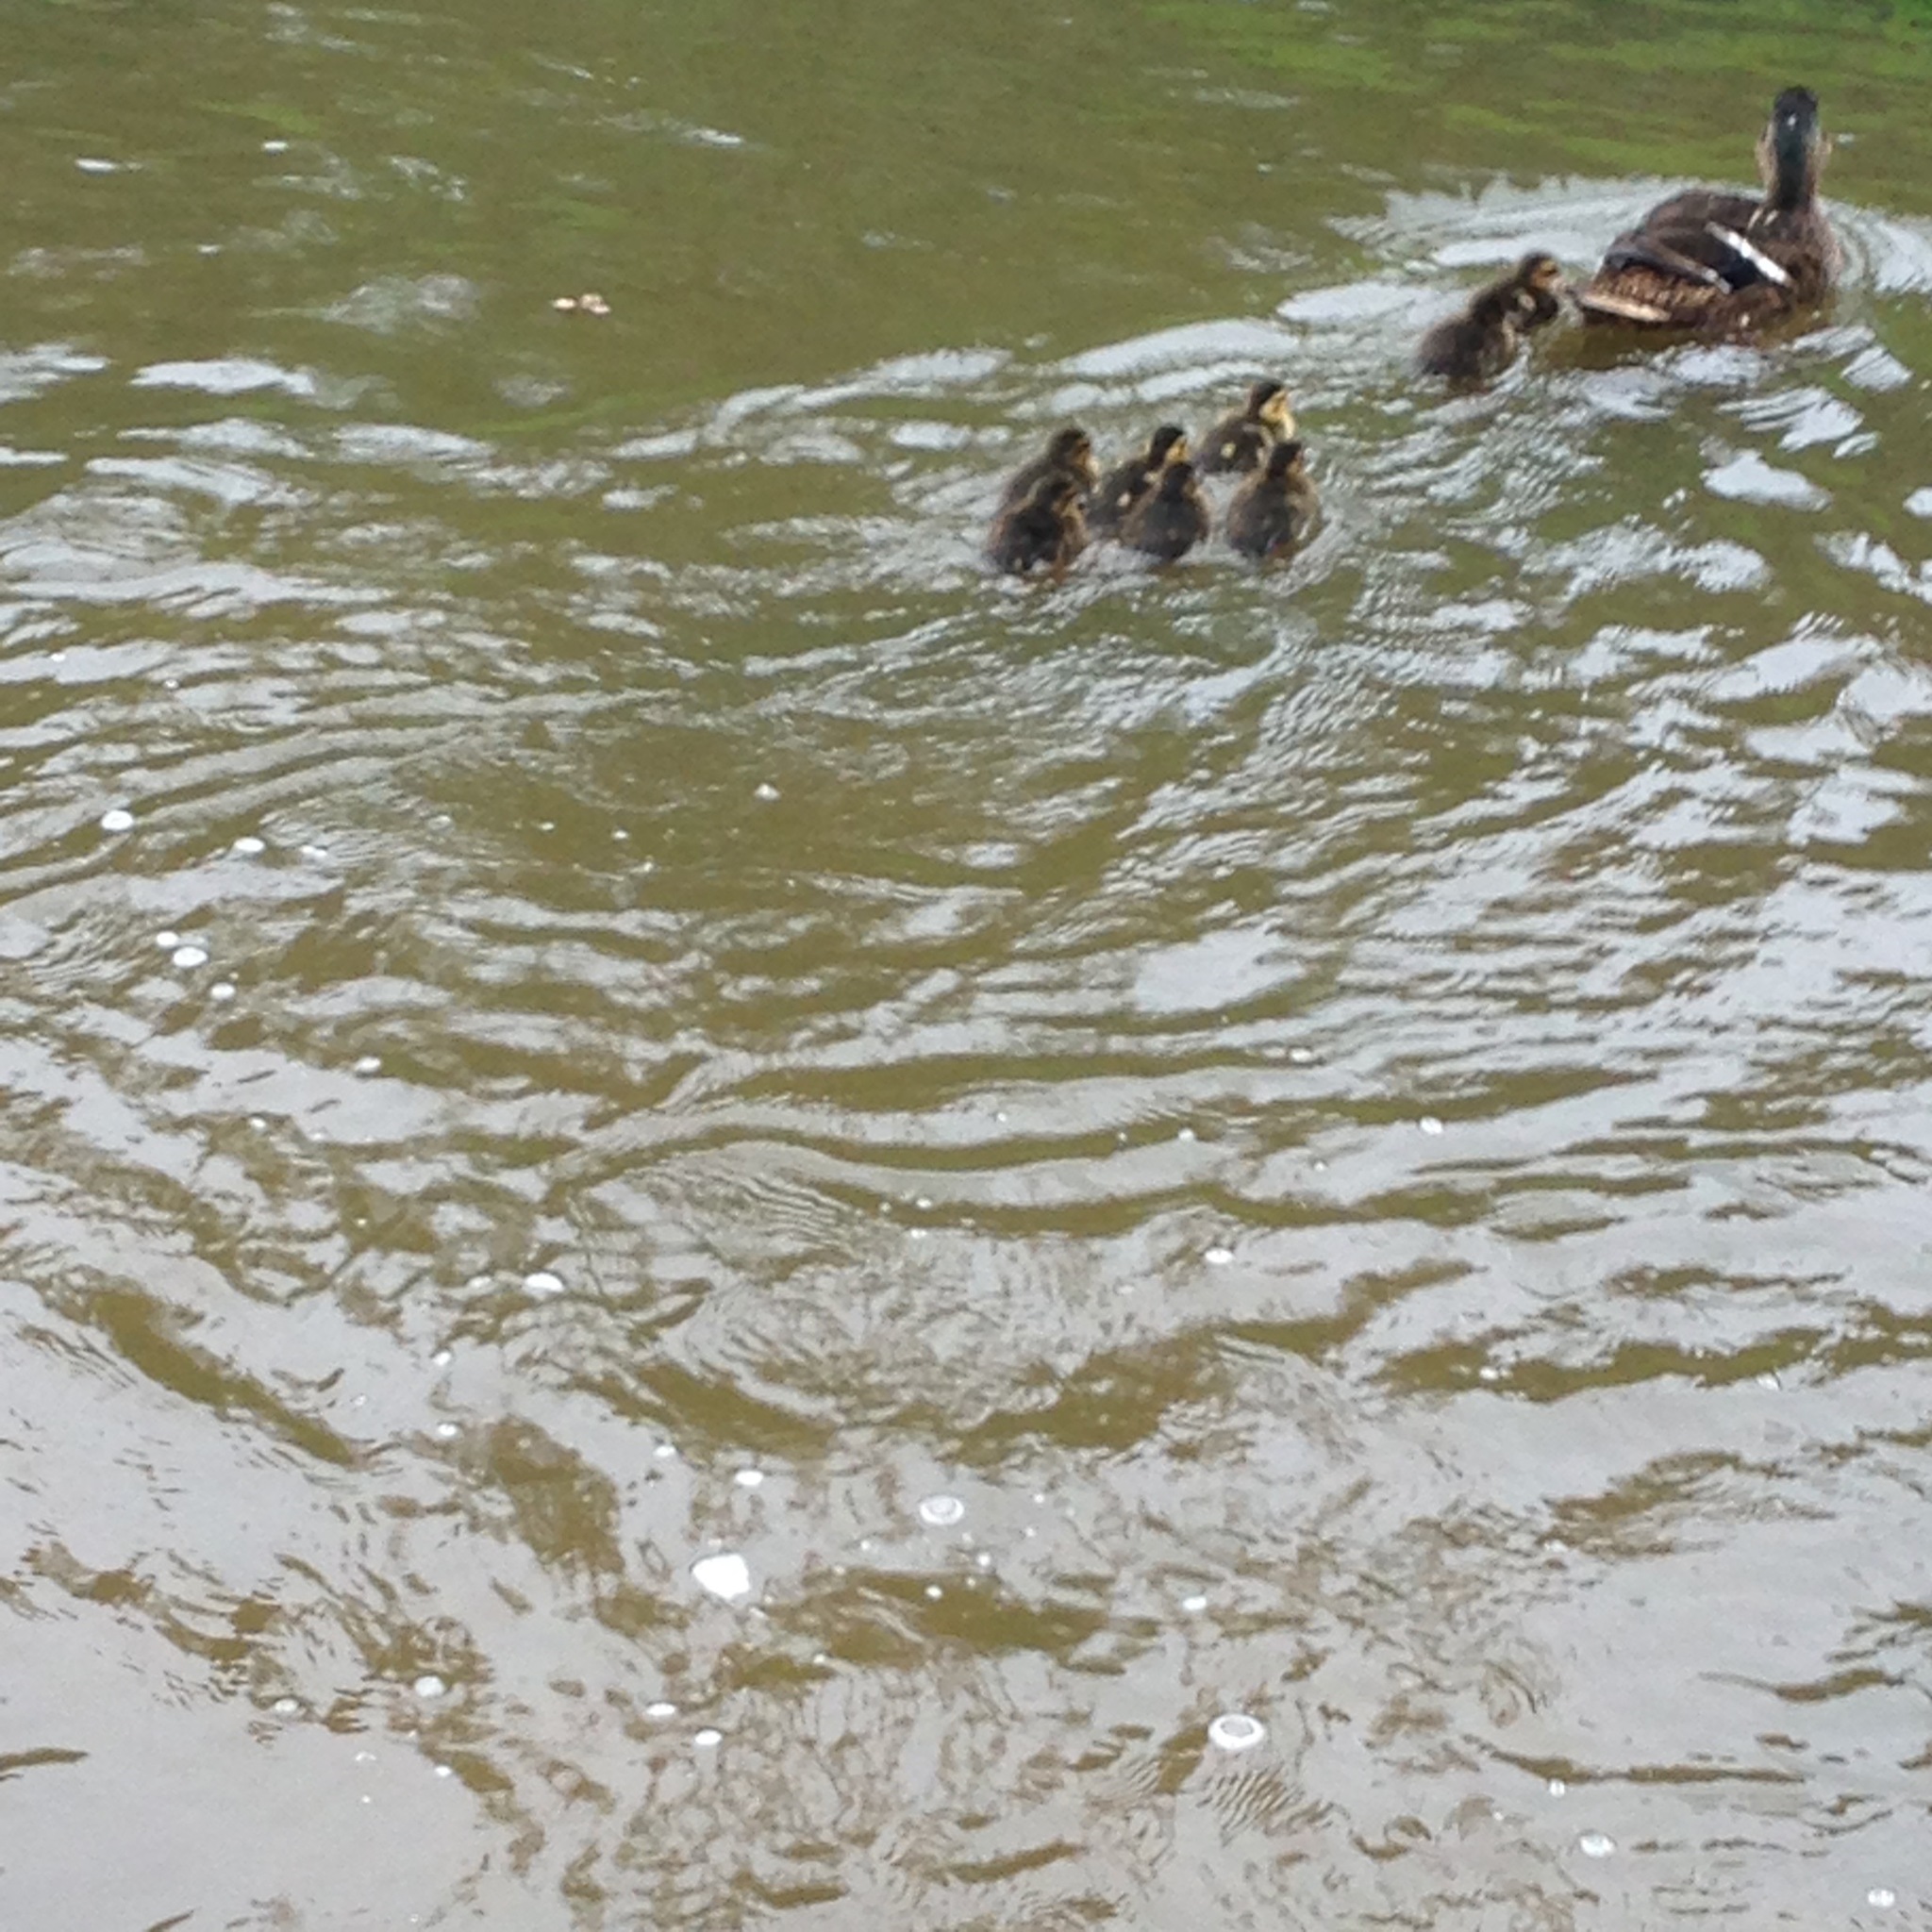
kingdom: Animalia
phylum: Chordata
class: Aves
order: Anseriformes
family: Anatidae
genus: Anas
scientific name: Anas platyrhynchos
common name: Mallard
